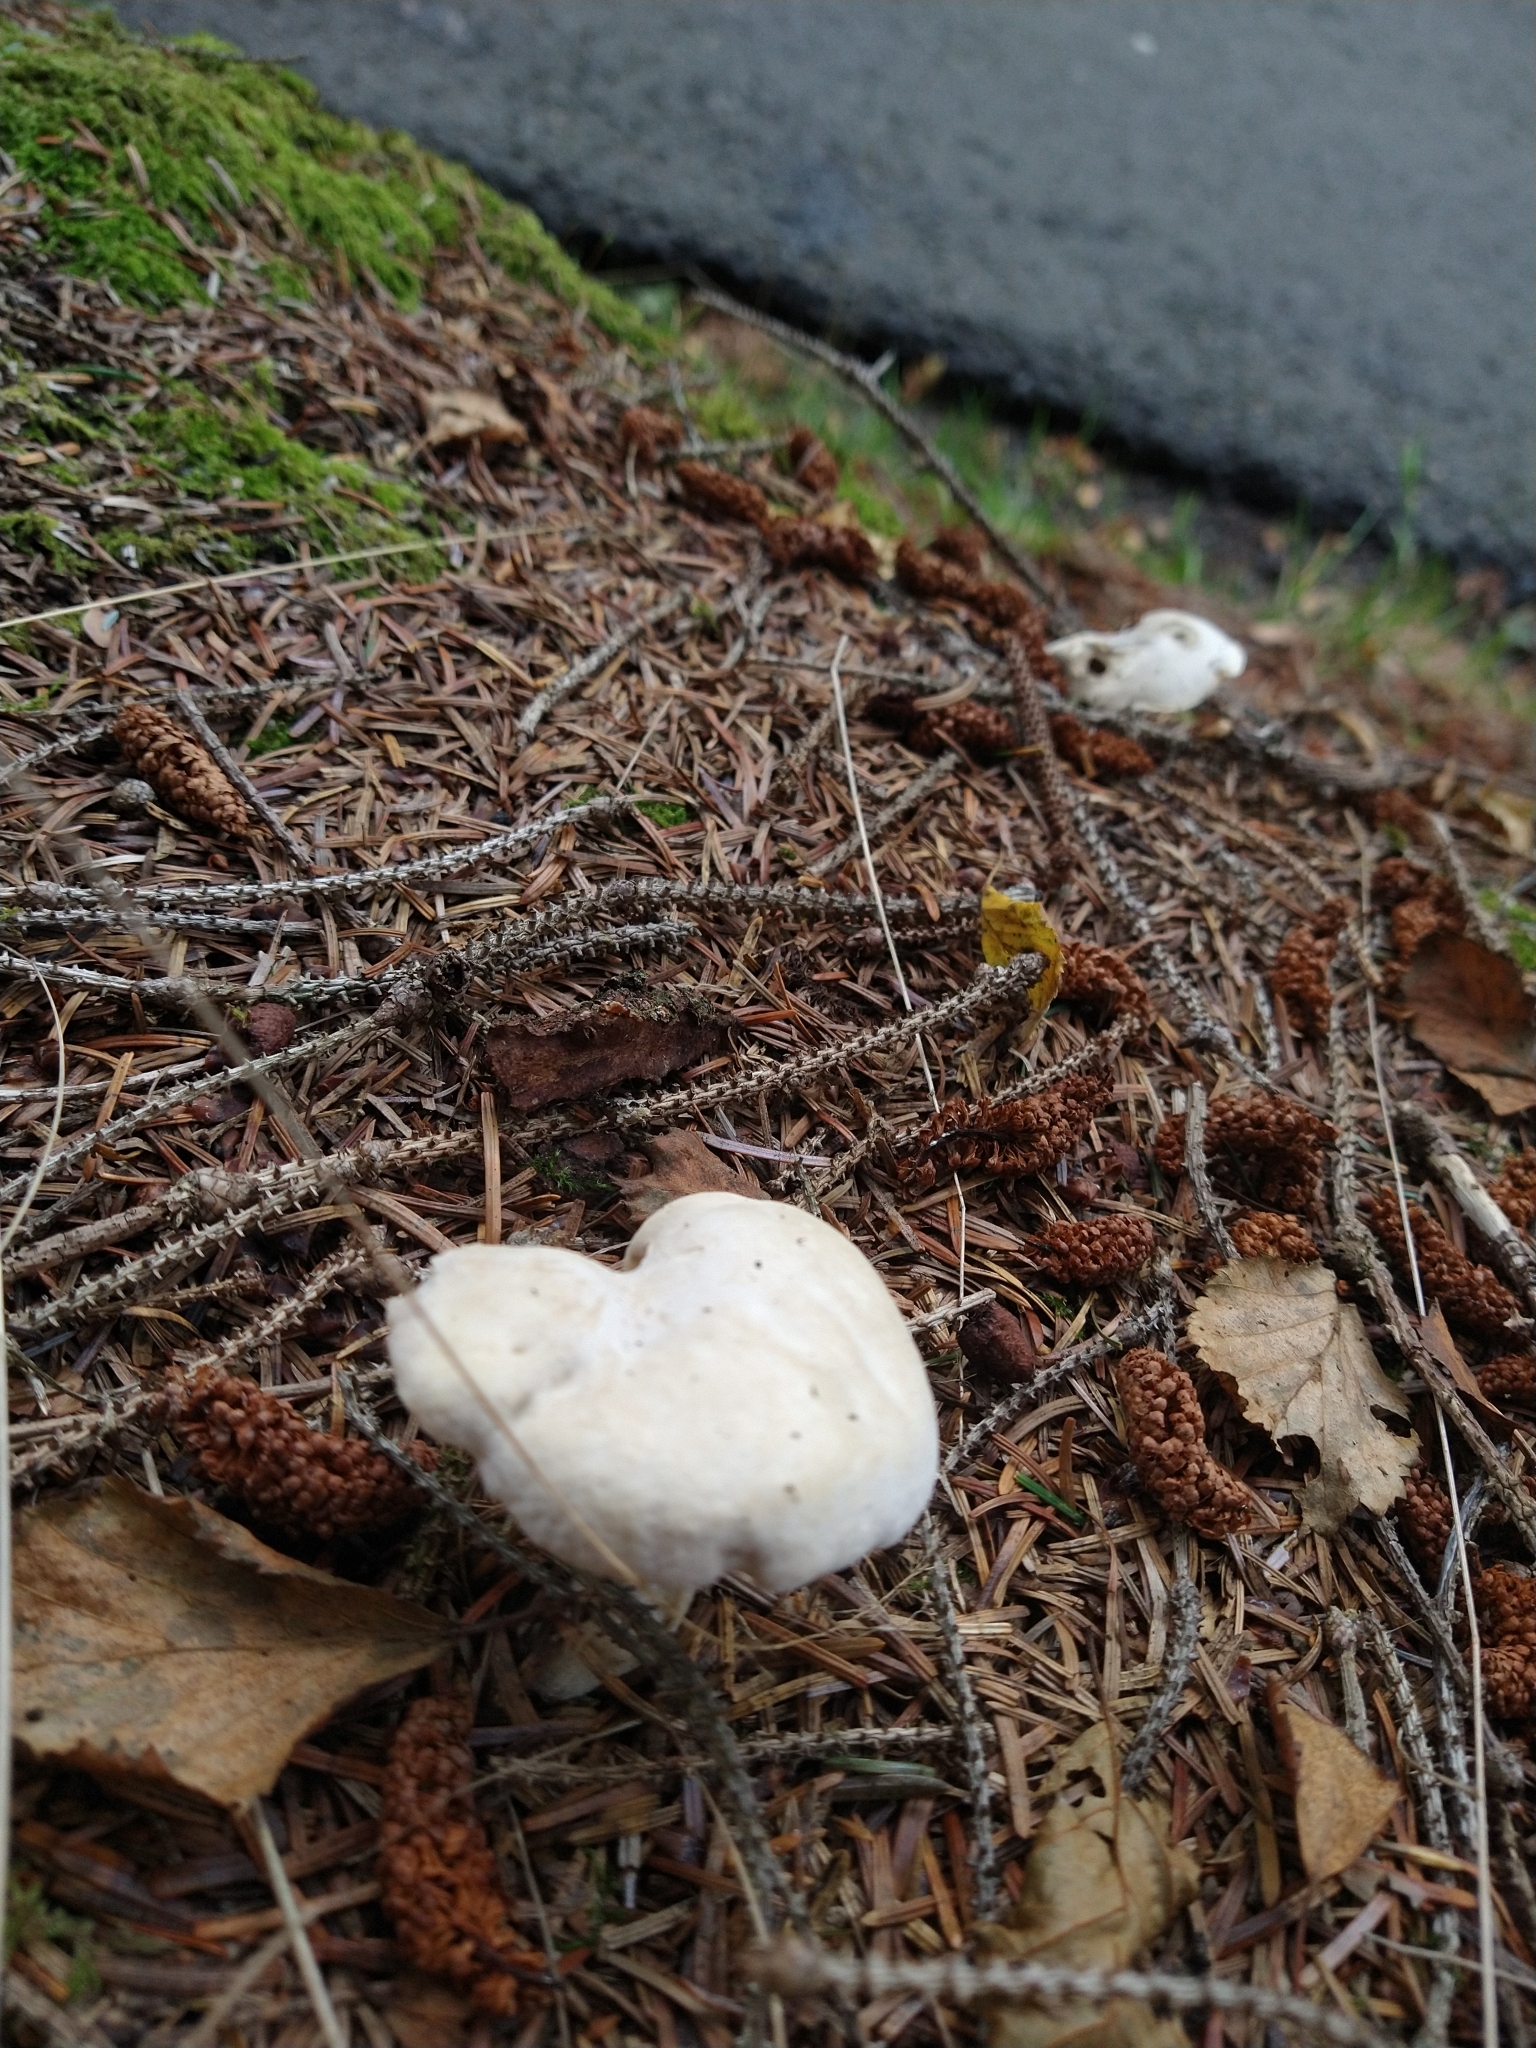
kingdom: Fungi
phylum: Basidiomycota
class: Agaricomycetes
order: Agaricales
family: Entolomataceae
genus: Clitopilus
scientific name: Clitopilus prunulus
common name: The miller
